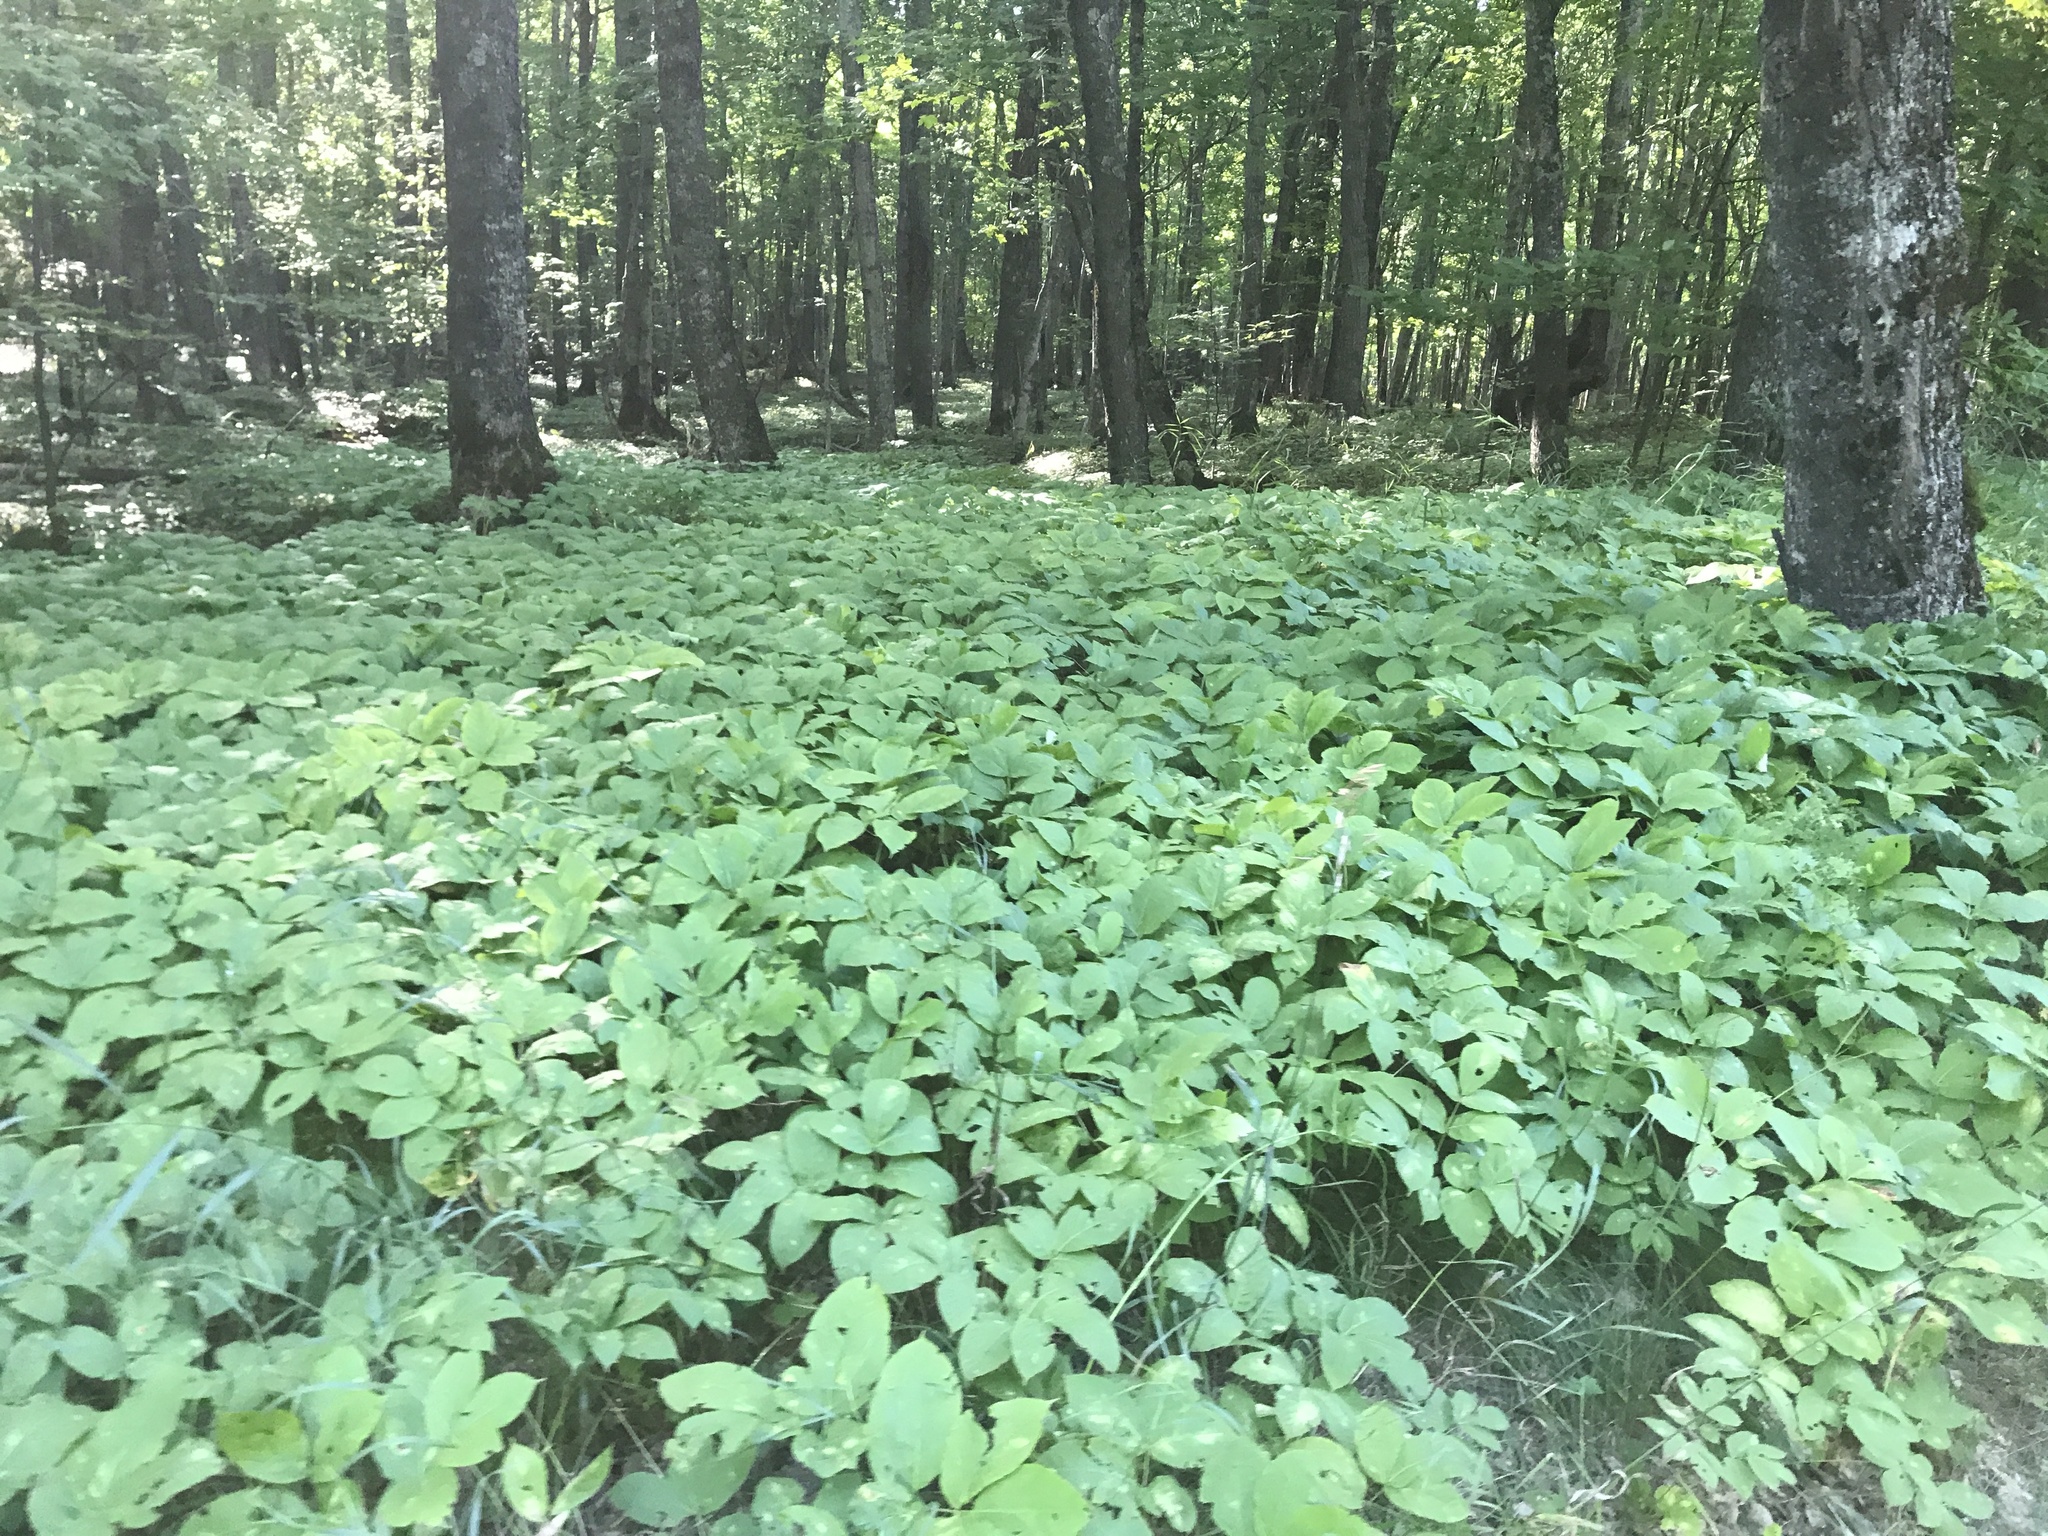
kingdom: Plantae
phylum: Tracheophyta
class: Magnoliopsida
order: Apiales
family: Araliaceae
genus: Aralia
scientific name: Aralia nudicaulis
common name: Wild sarsaparilla
